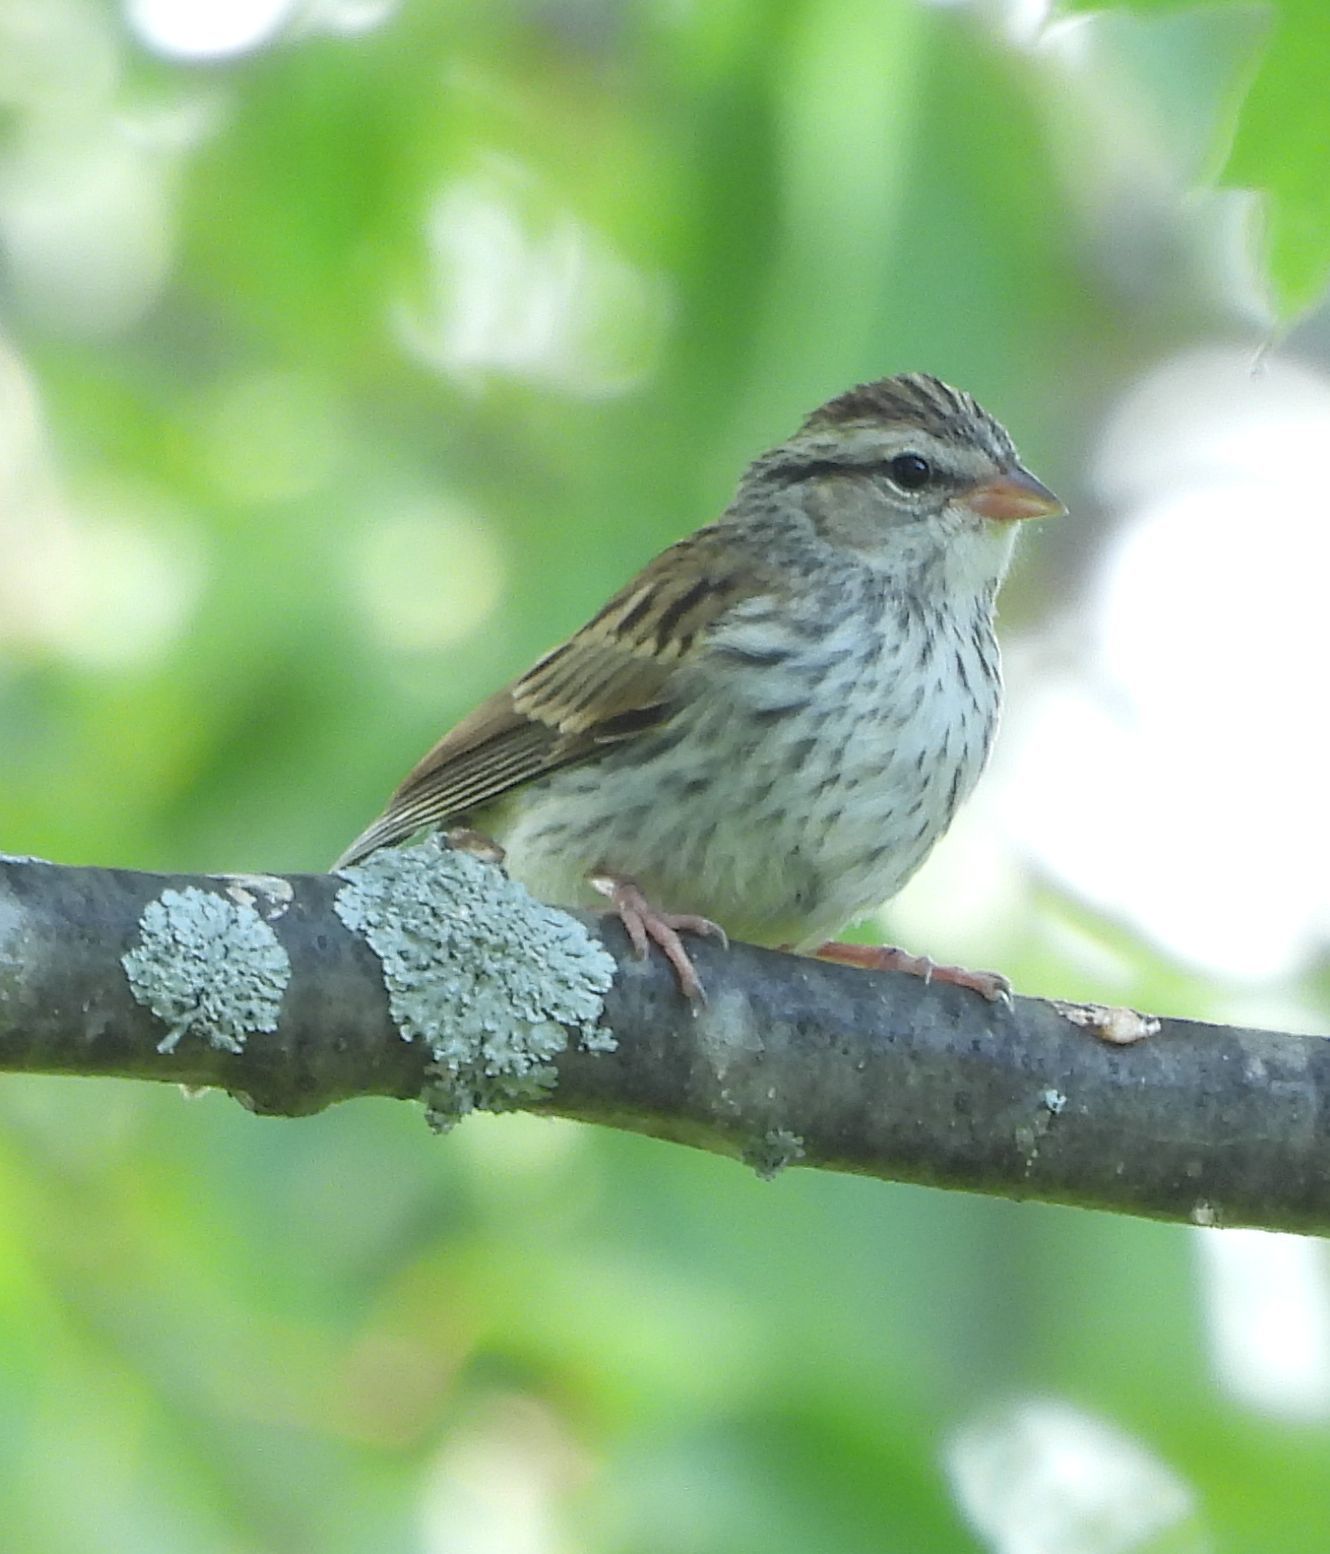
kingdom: Animalia
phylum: Chordata
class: Aves
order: Passeriformes
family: Passerellidae
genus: Spizella
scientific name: Spizella passerina
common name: Chipping sparrow
